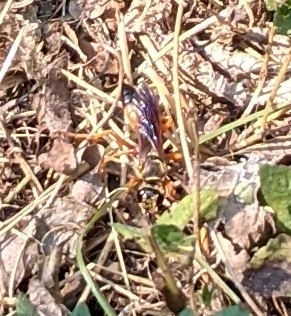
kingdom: Animalia
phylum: Arthropoda
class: Insecta
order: Hymenoptera
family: Sphecidae
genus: Sphex
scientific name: Sphex ichneumoneus
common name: Great golden digger wasp
